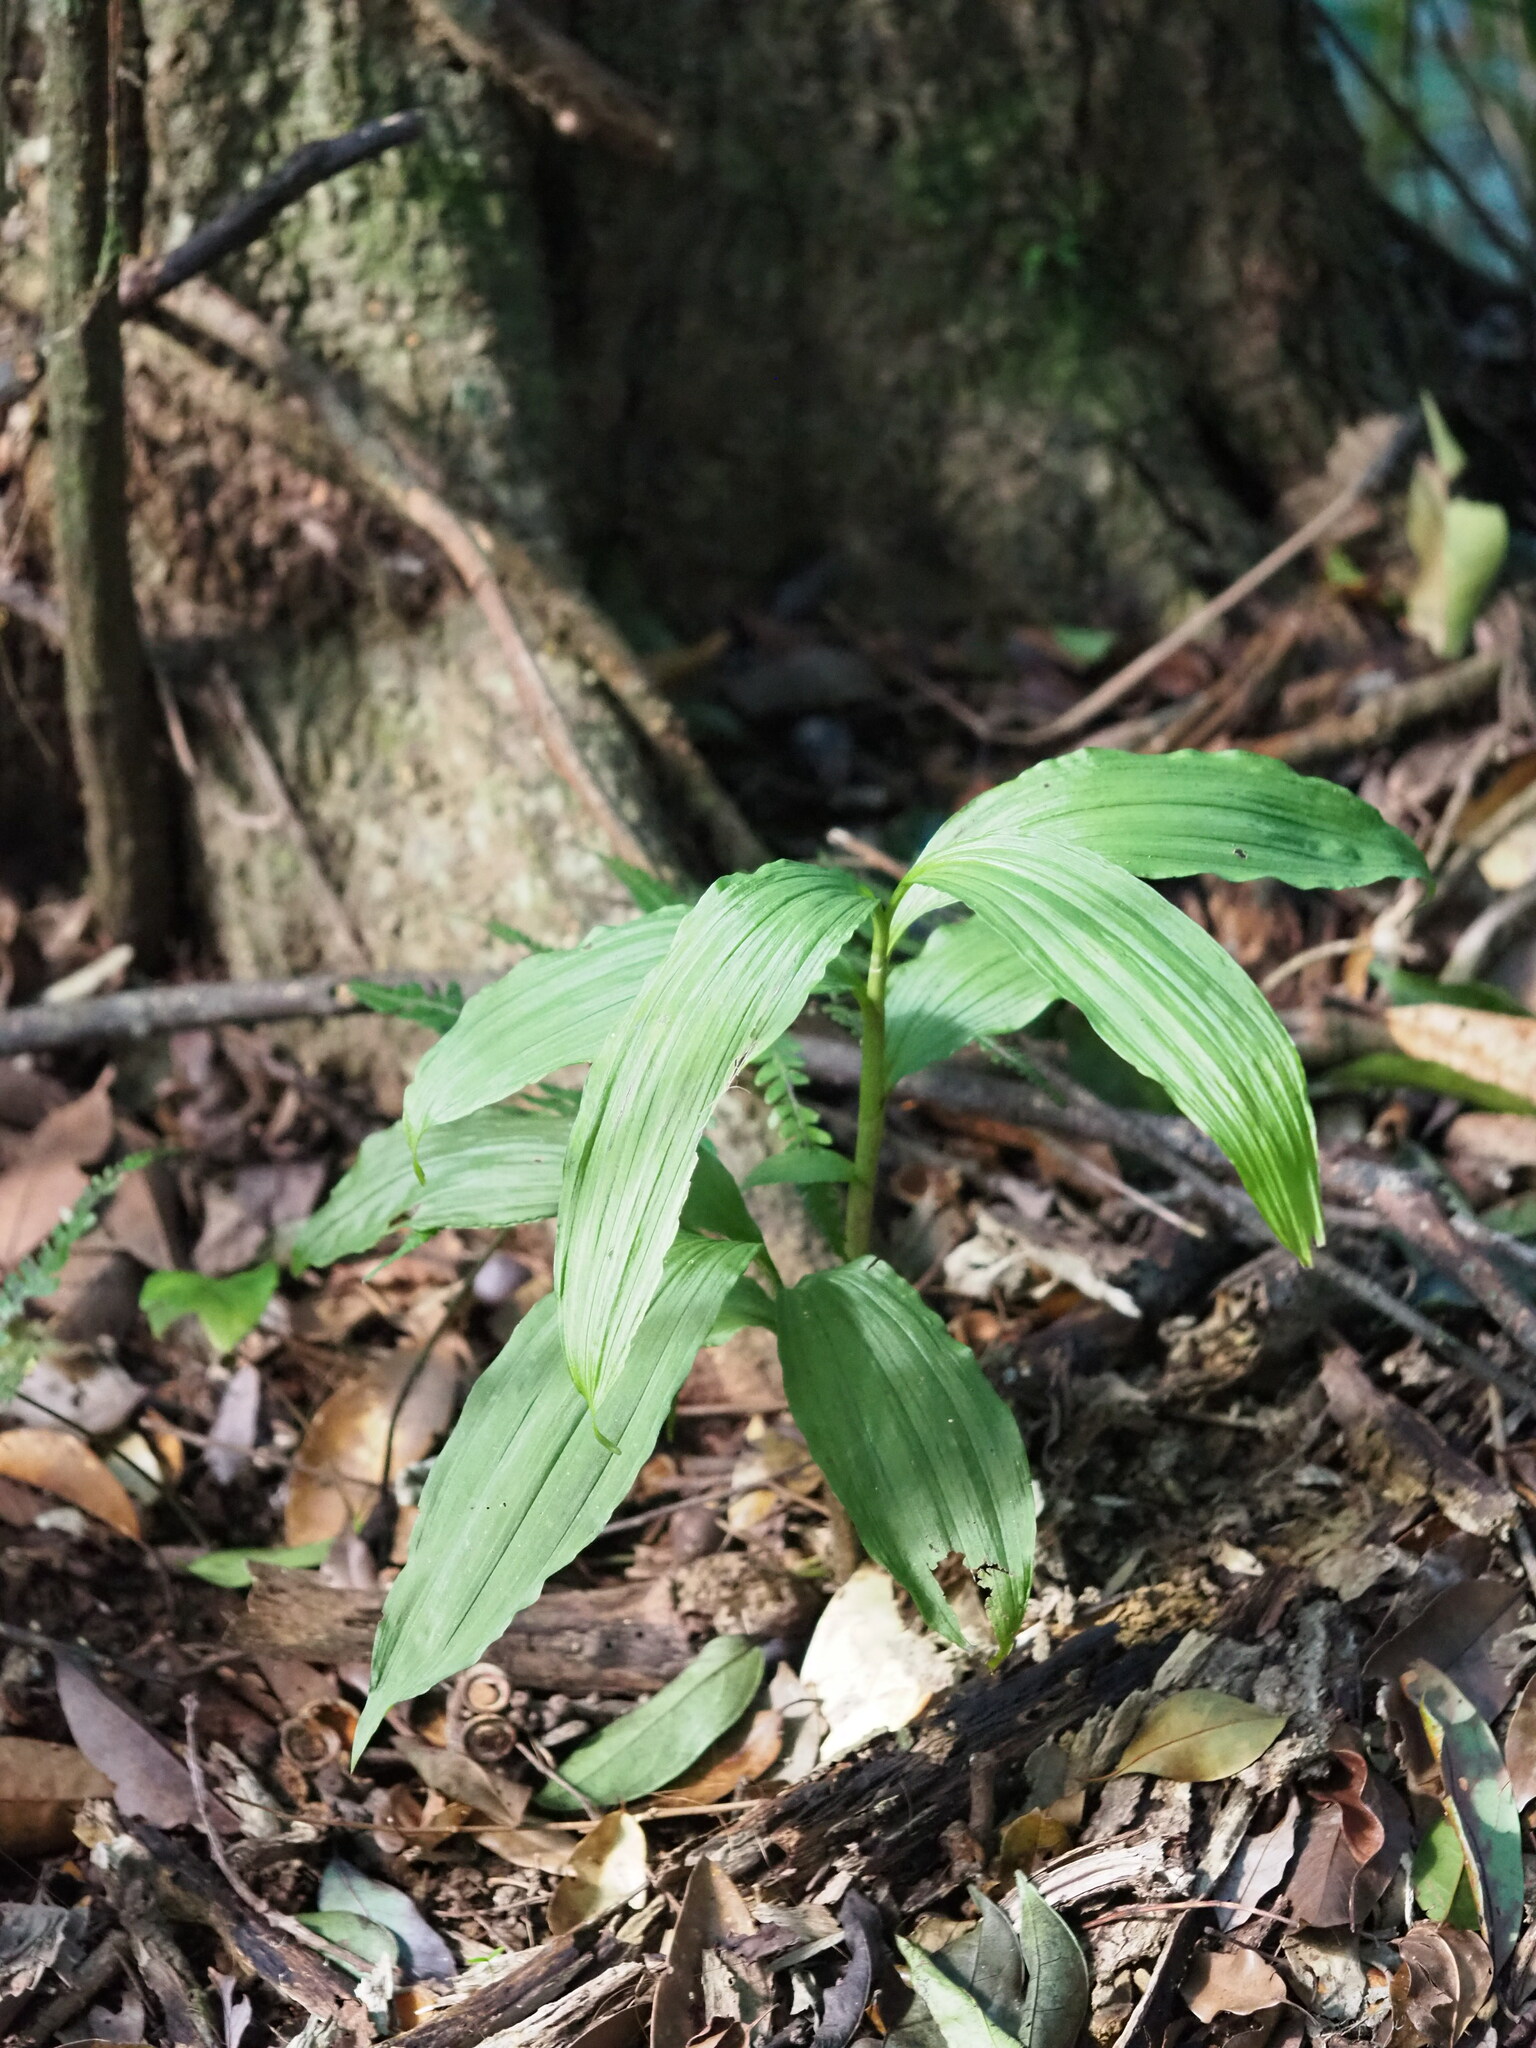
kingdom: Plantae
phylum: Tracheophyta
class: Liliopsida
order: Asparagales
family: Orchidaceae
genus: Calanthe
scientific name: Calanthe obcordata
